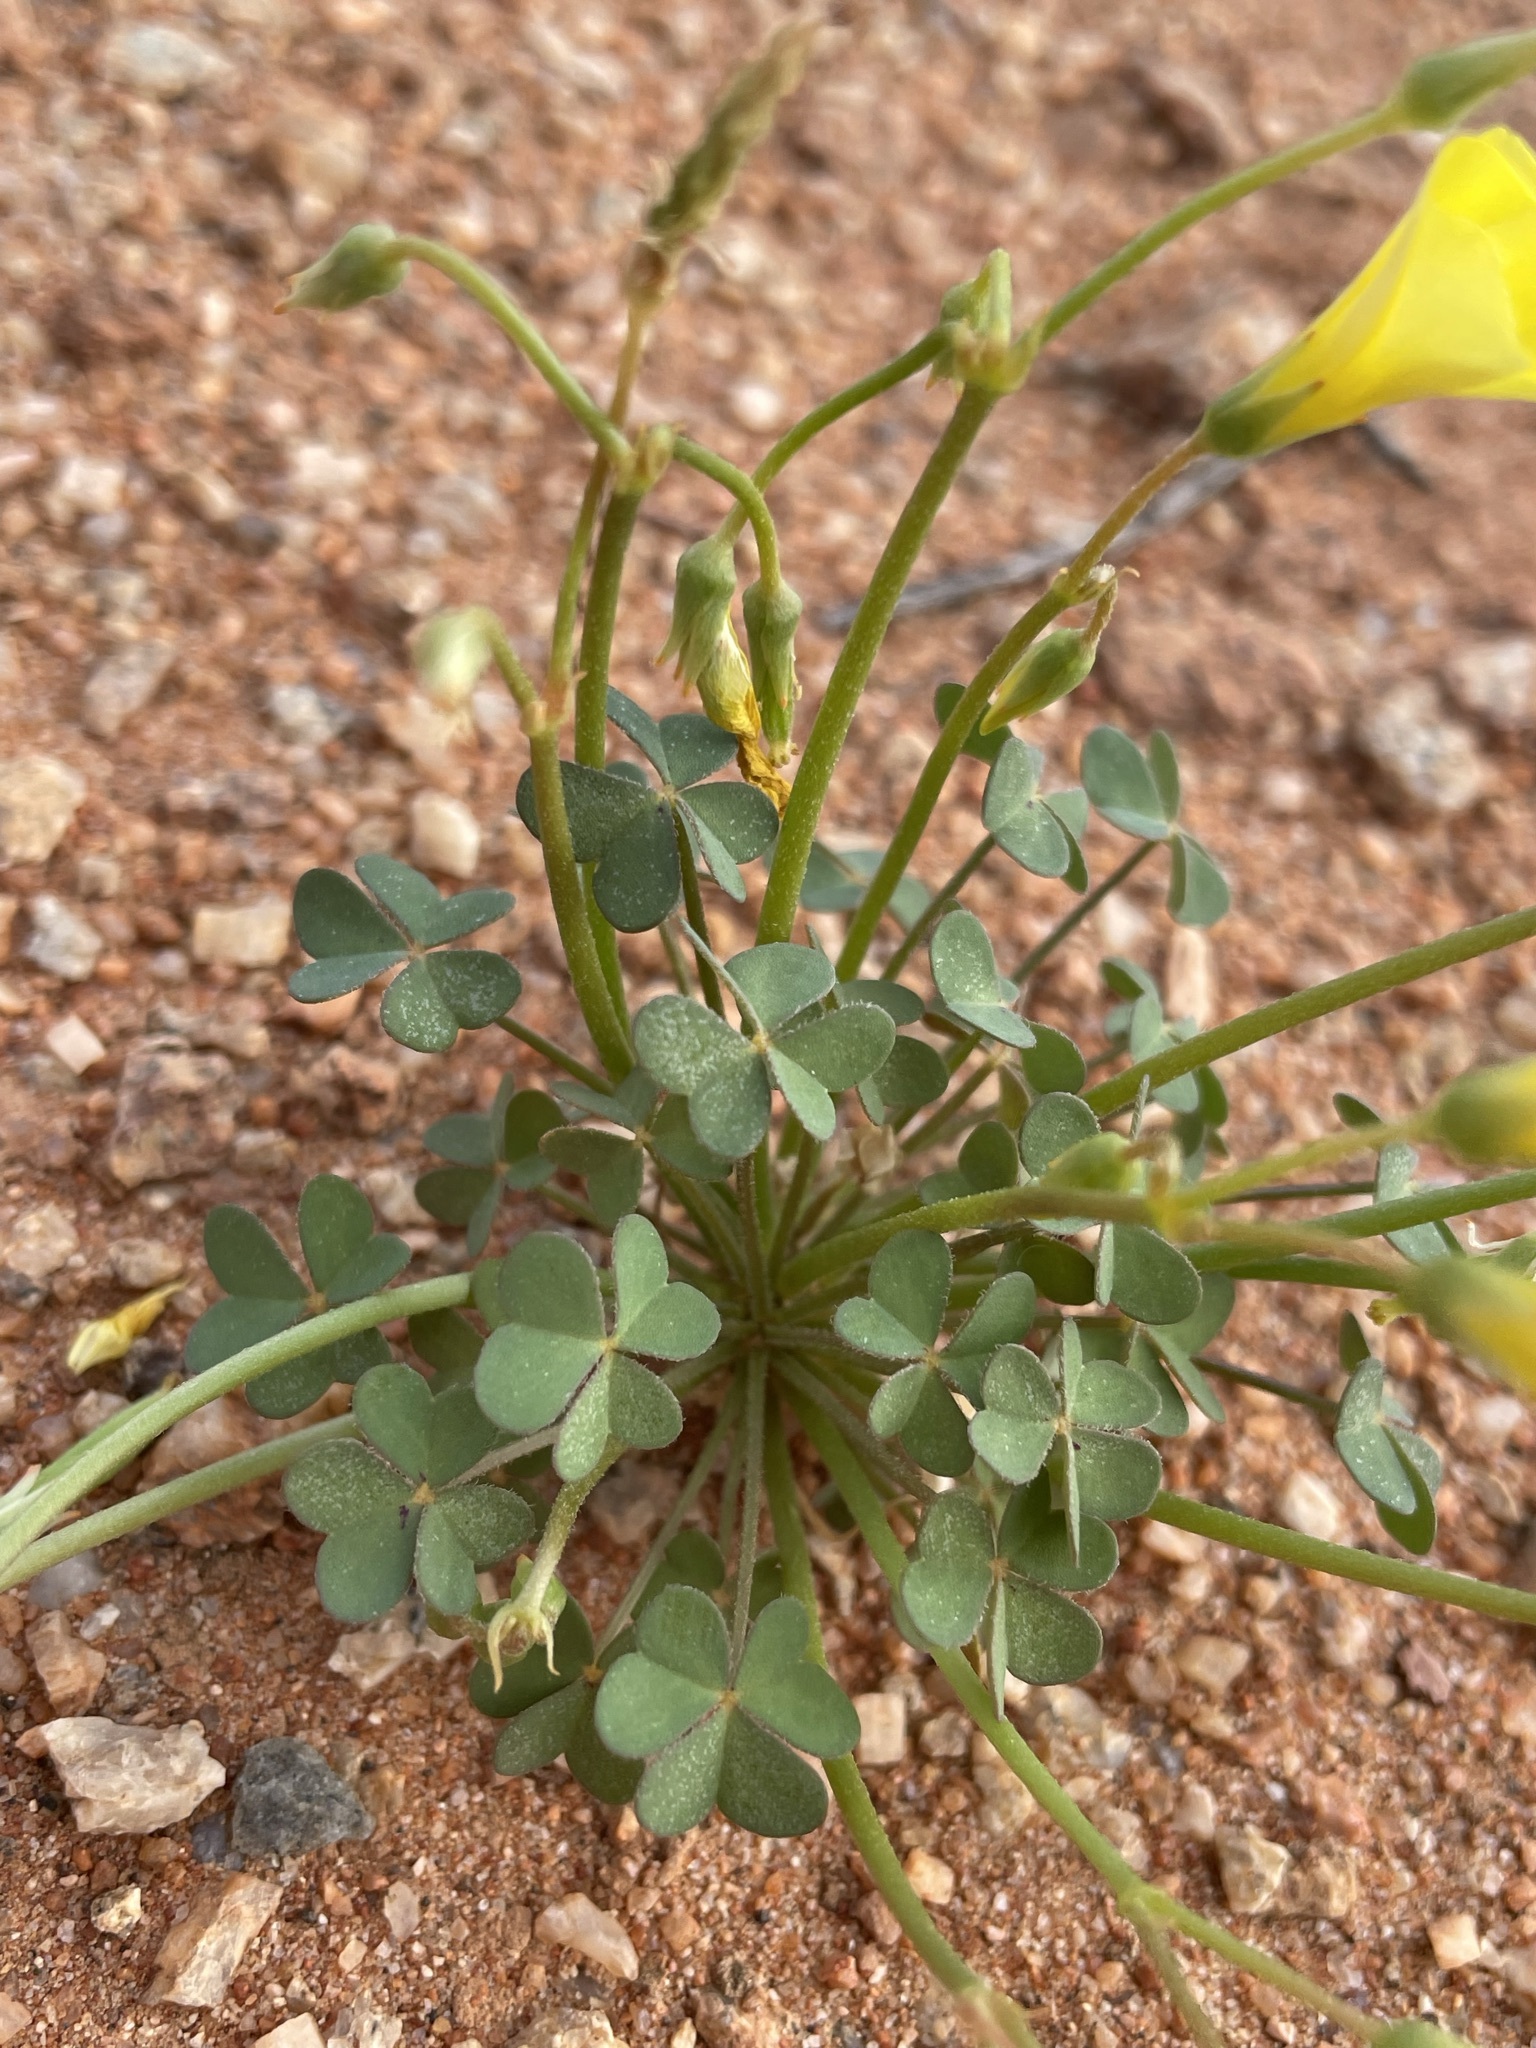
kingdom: Plantae
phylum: Tracheophyta
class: Magnoliopsida
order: Oxalidales
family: Oxalidaceae
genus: Oxalis
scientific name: Oxalis haedulipes
